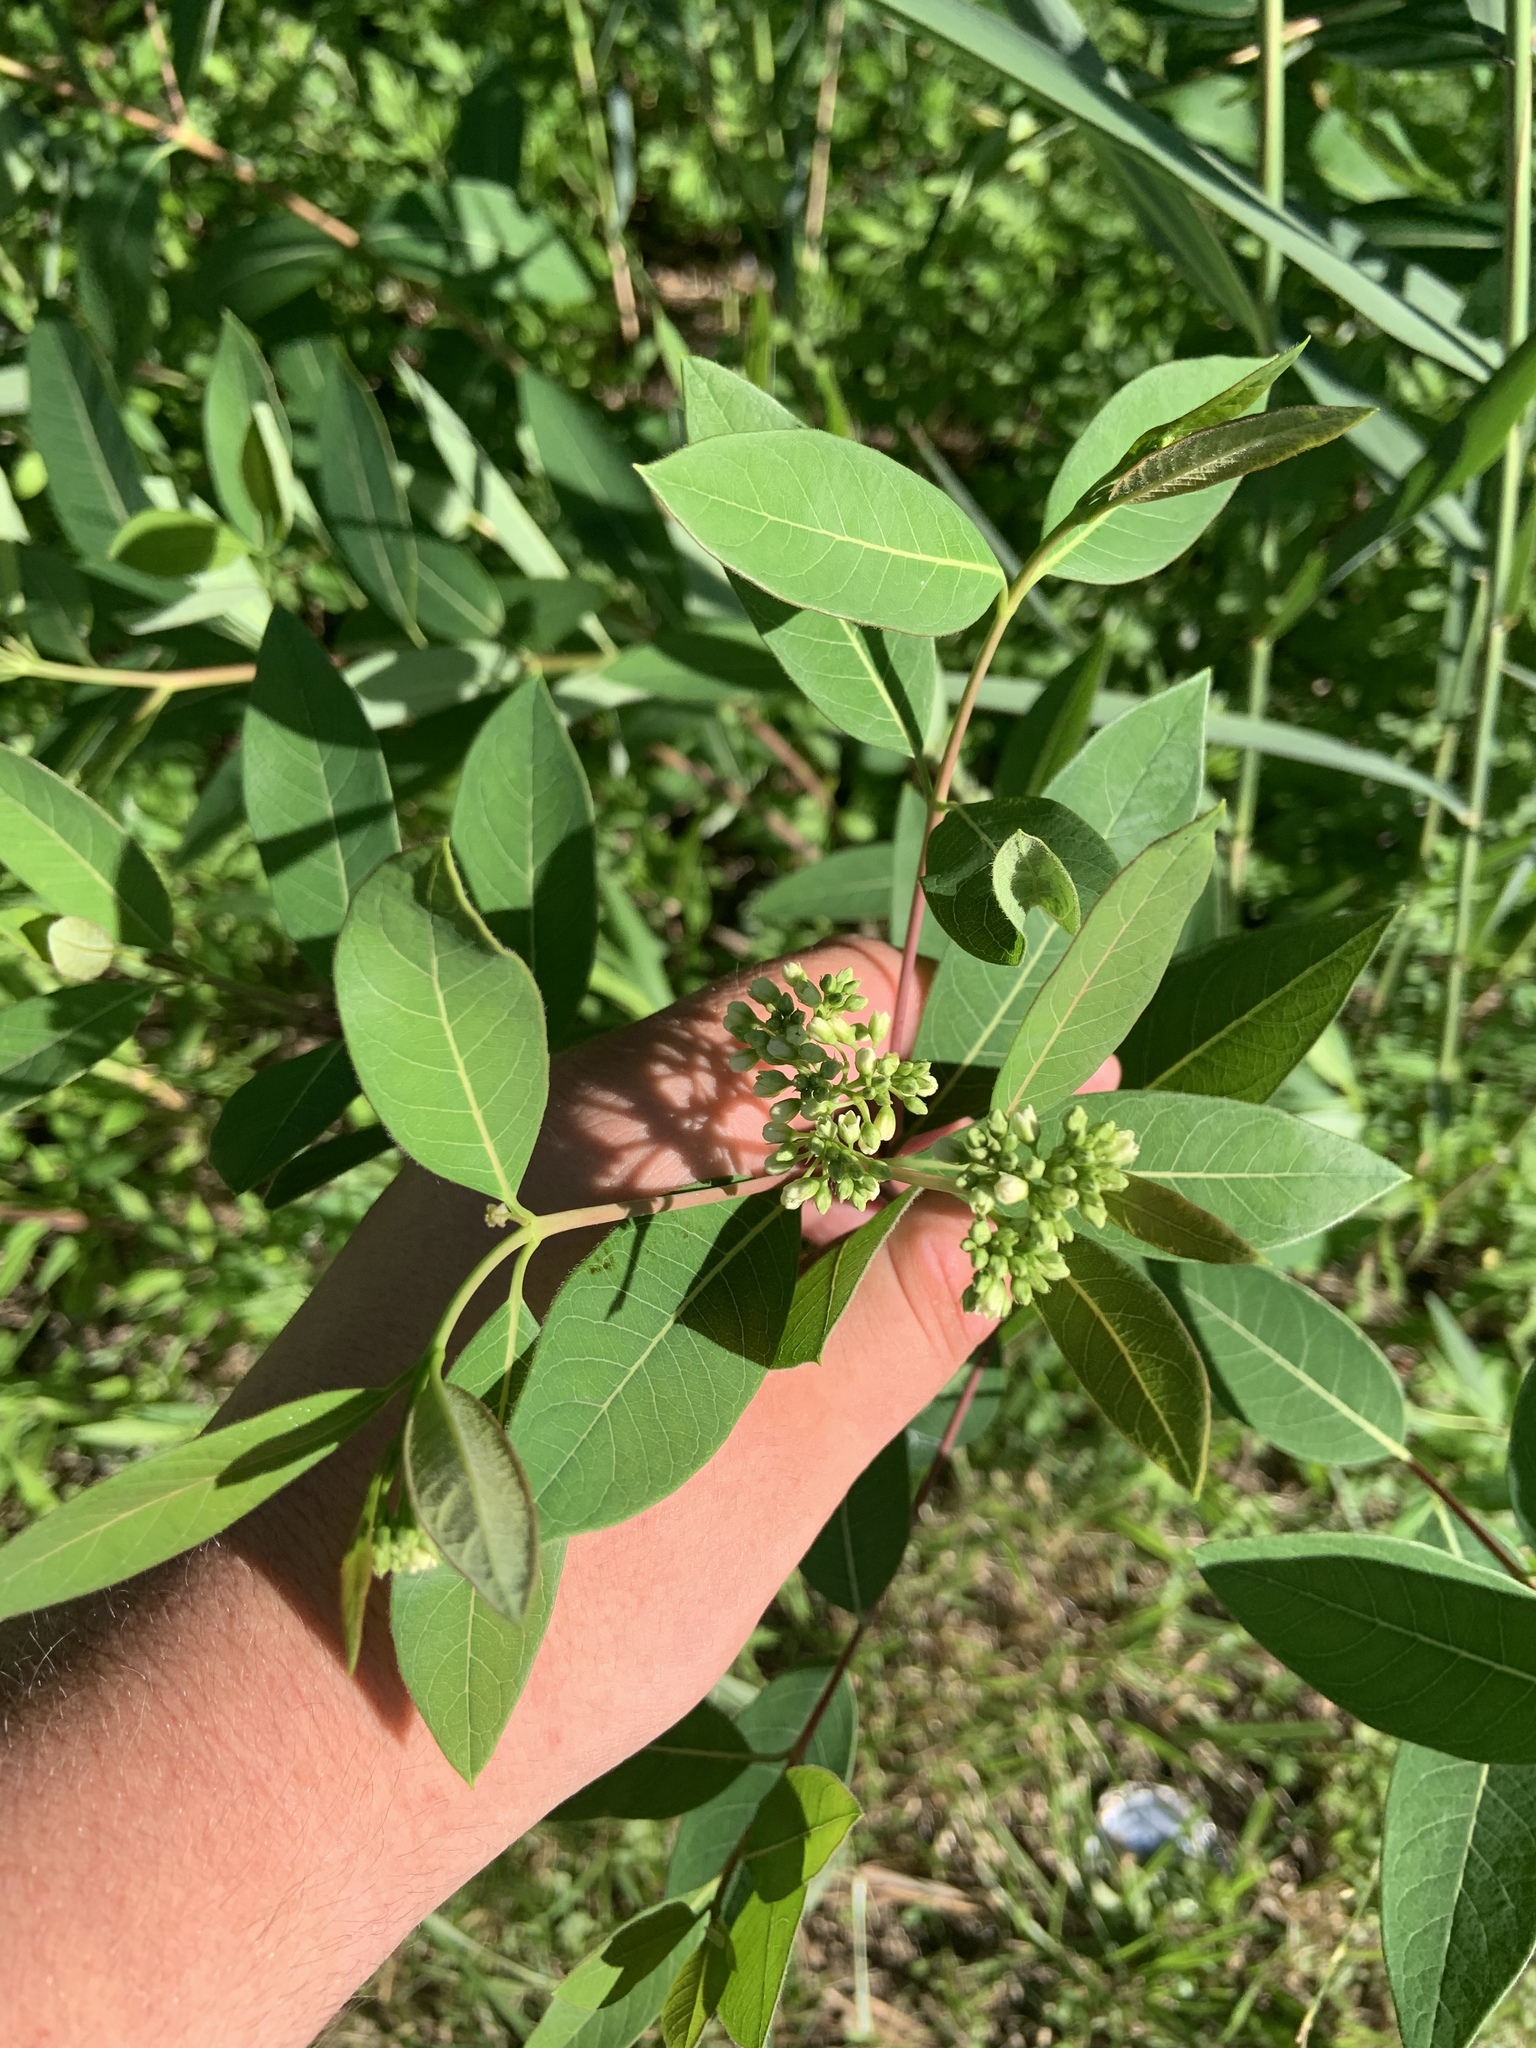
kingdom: Plantae
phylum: Tracheophyta
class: Magnoliopsida
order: Gentianales
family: Apocynaceae
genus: Apocynum
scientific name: Apocynum cannabinum
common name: Hemp dogbane
